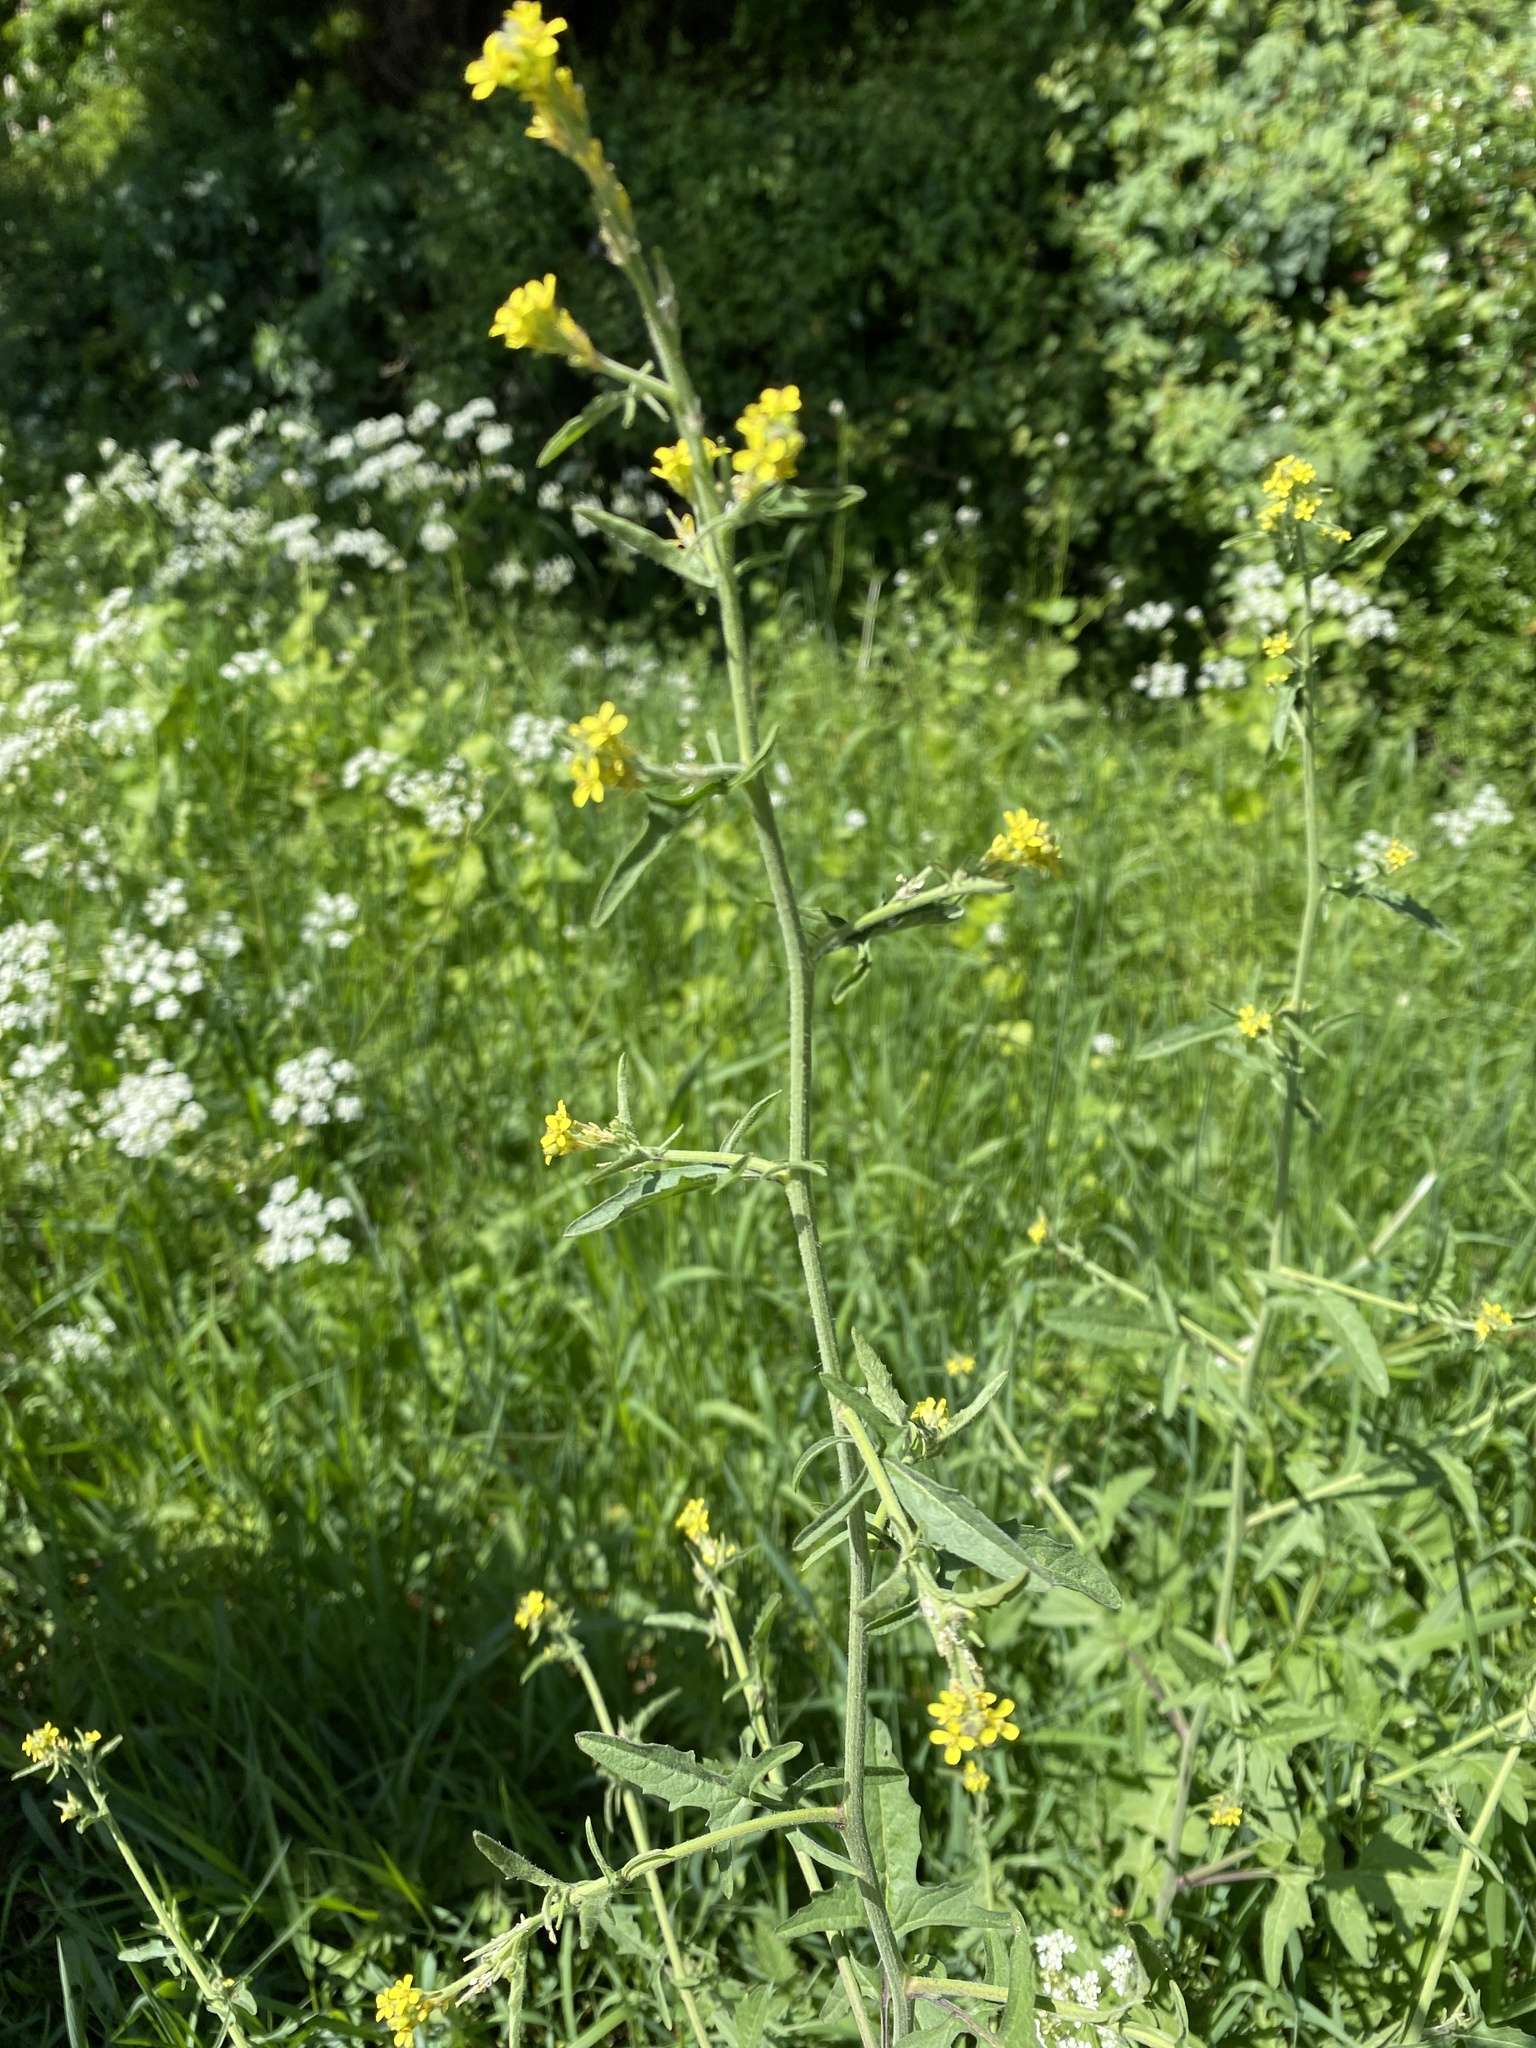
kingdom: Plantae
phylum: Tracheophyta
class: Magnoliopsida
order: Brassicales
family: Brassicaceae
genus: Sisymbrium
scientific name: Sisymbrium officinale
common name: Hedge mustard
